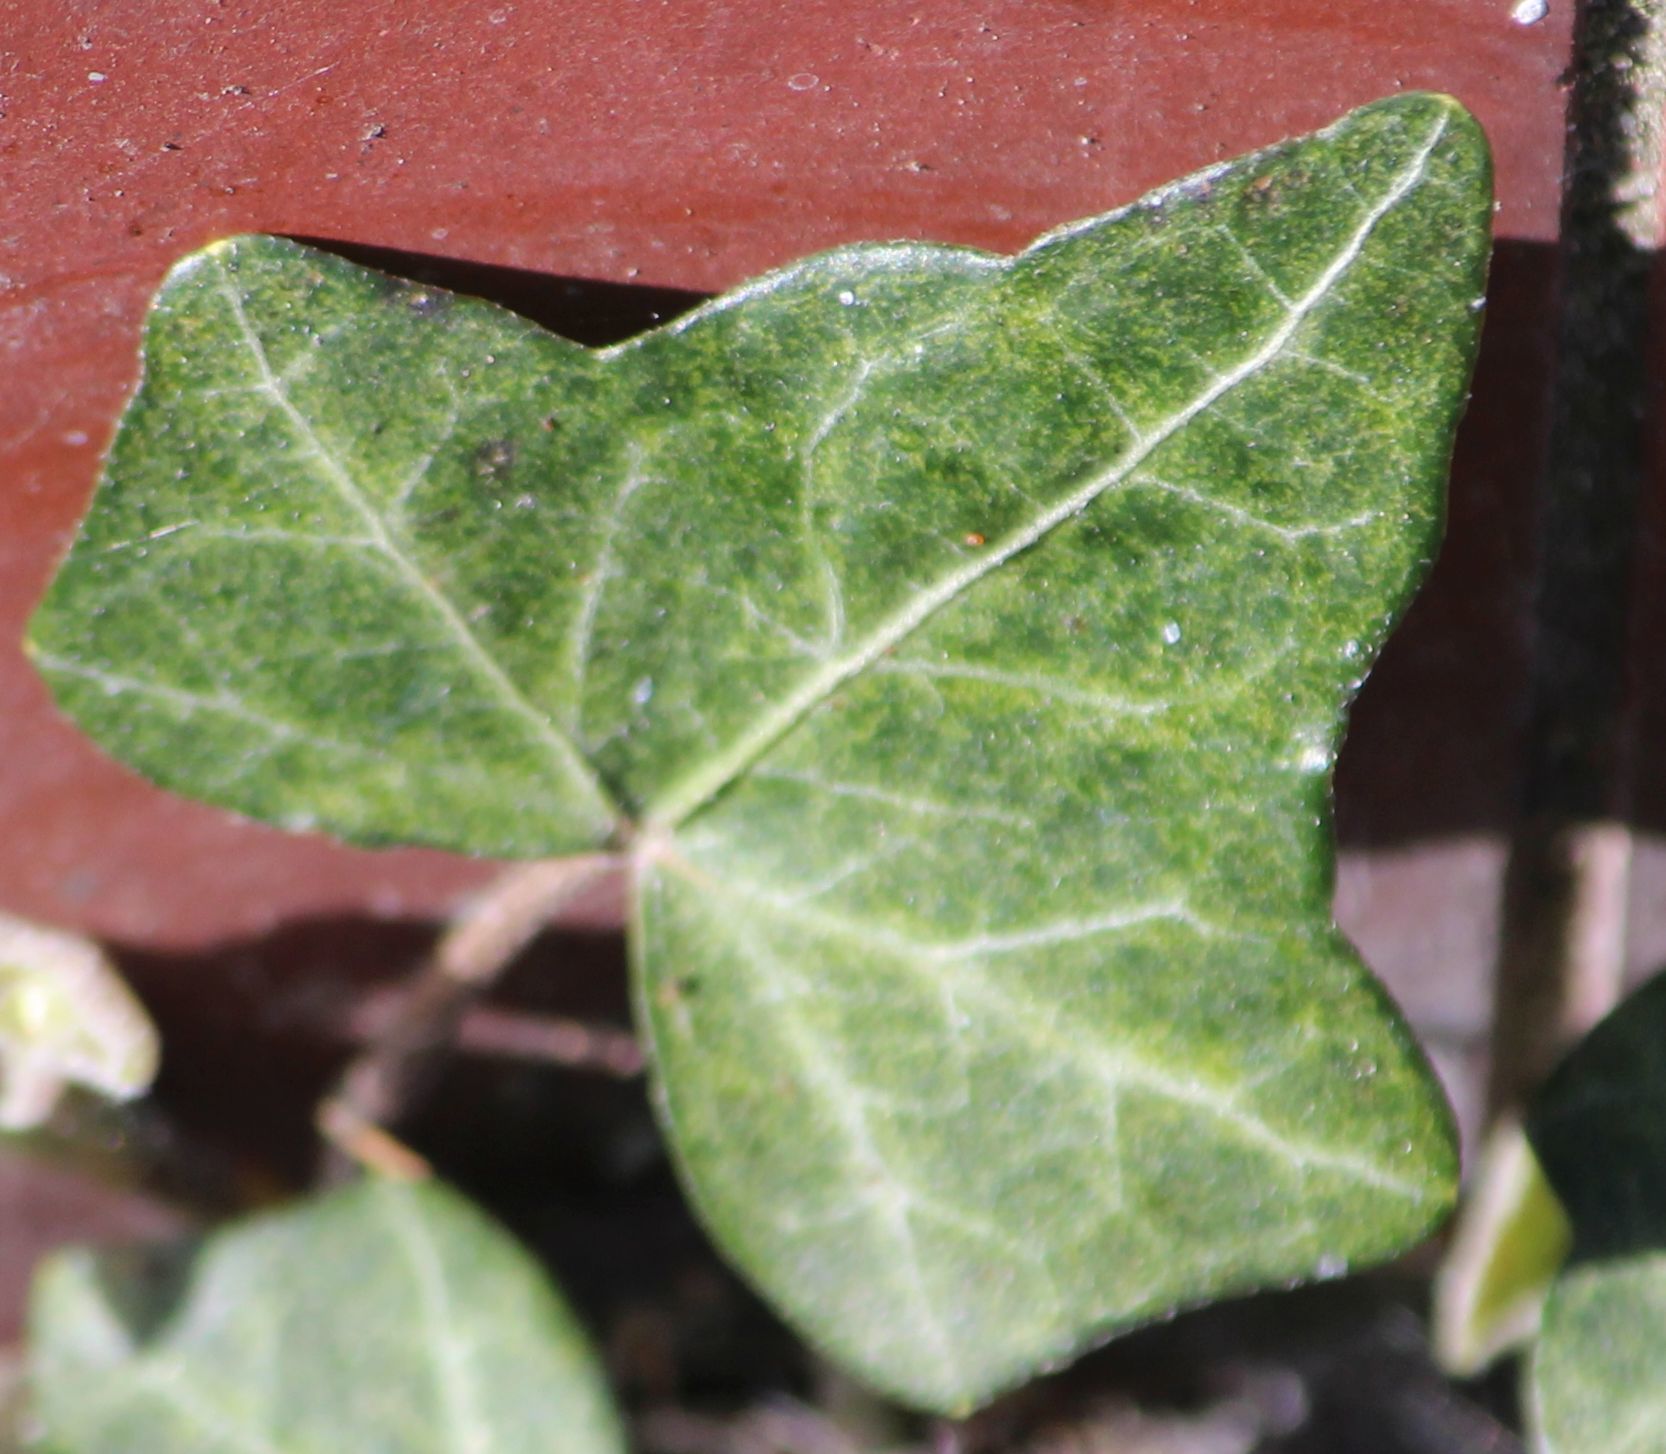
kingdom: Plantae
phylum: Tracheophyta
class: Magnoliopsida
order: Apiales
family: Araliaceae
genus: Hedera
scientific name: Hedera helix
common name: Ivy
